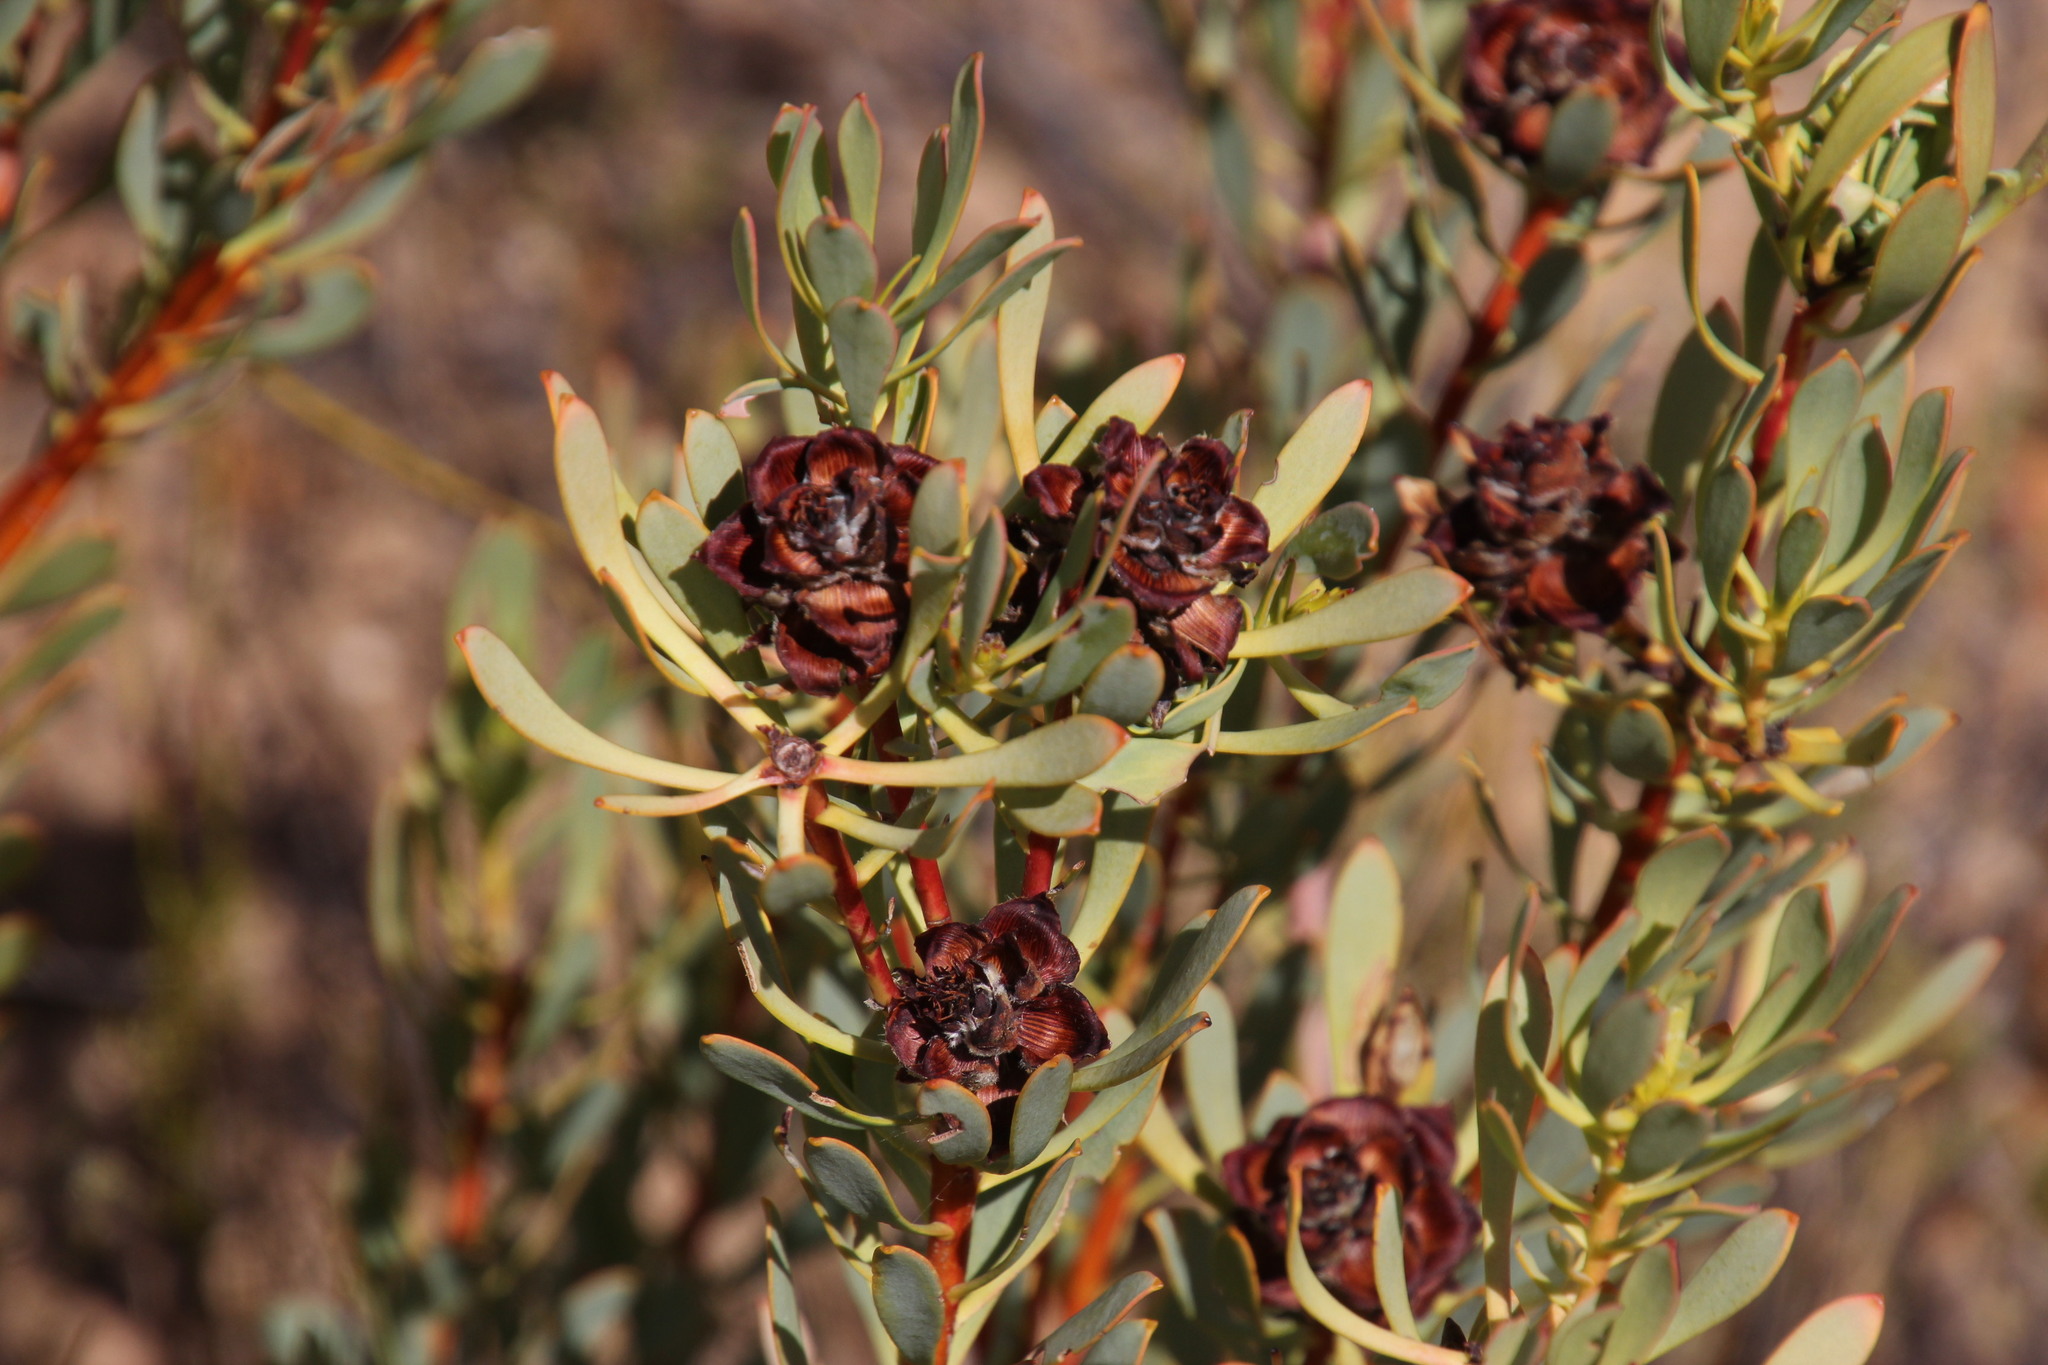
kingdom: Plantae
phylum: Tracheophyta
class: Magnoliopsida
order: Proteales
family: Proteaceae
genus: Leucadendron
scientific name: Leucadendron glaberrimum
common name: Common oily conebush
